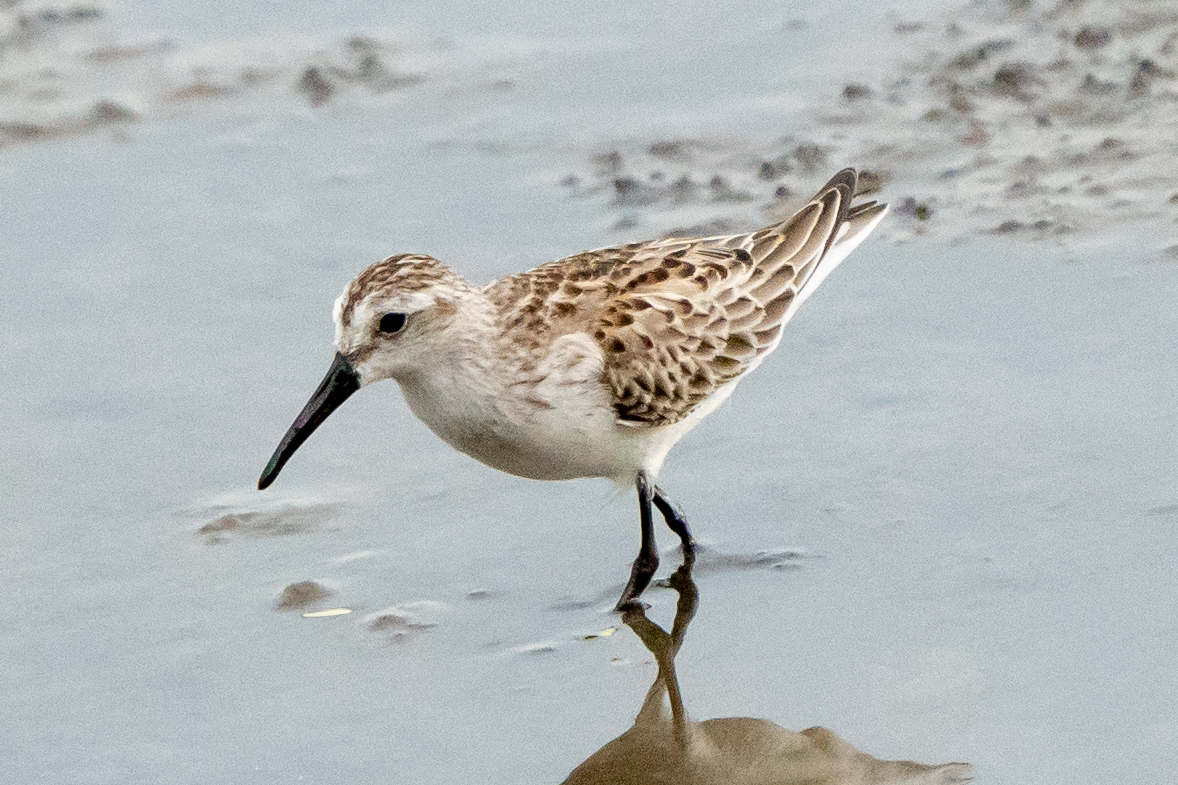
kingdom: Animalia
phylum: Chordata
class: Aves
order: Charadriiformes
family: Scolopacidae
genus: Calidris
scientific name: Calidris mauri
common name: Western sandpiper
